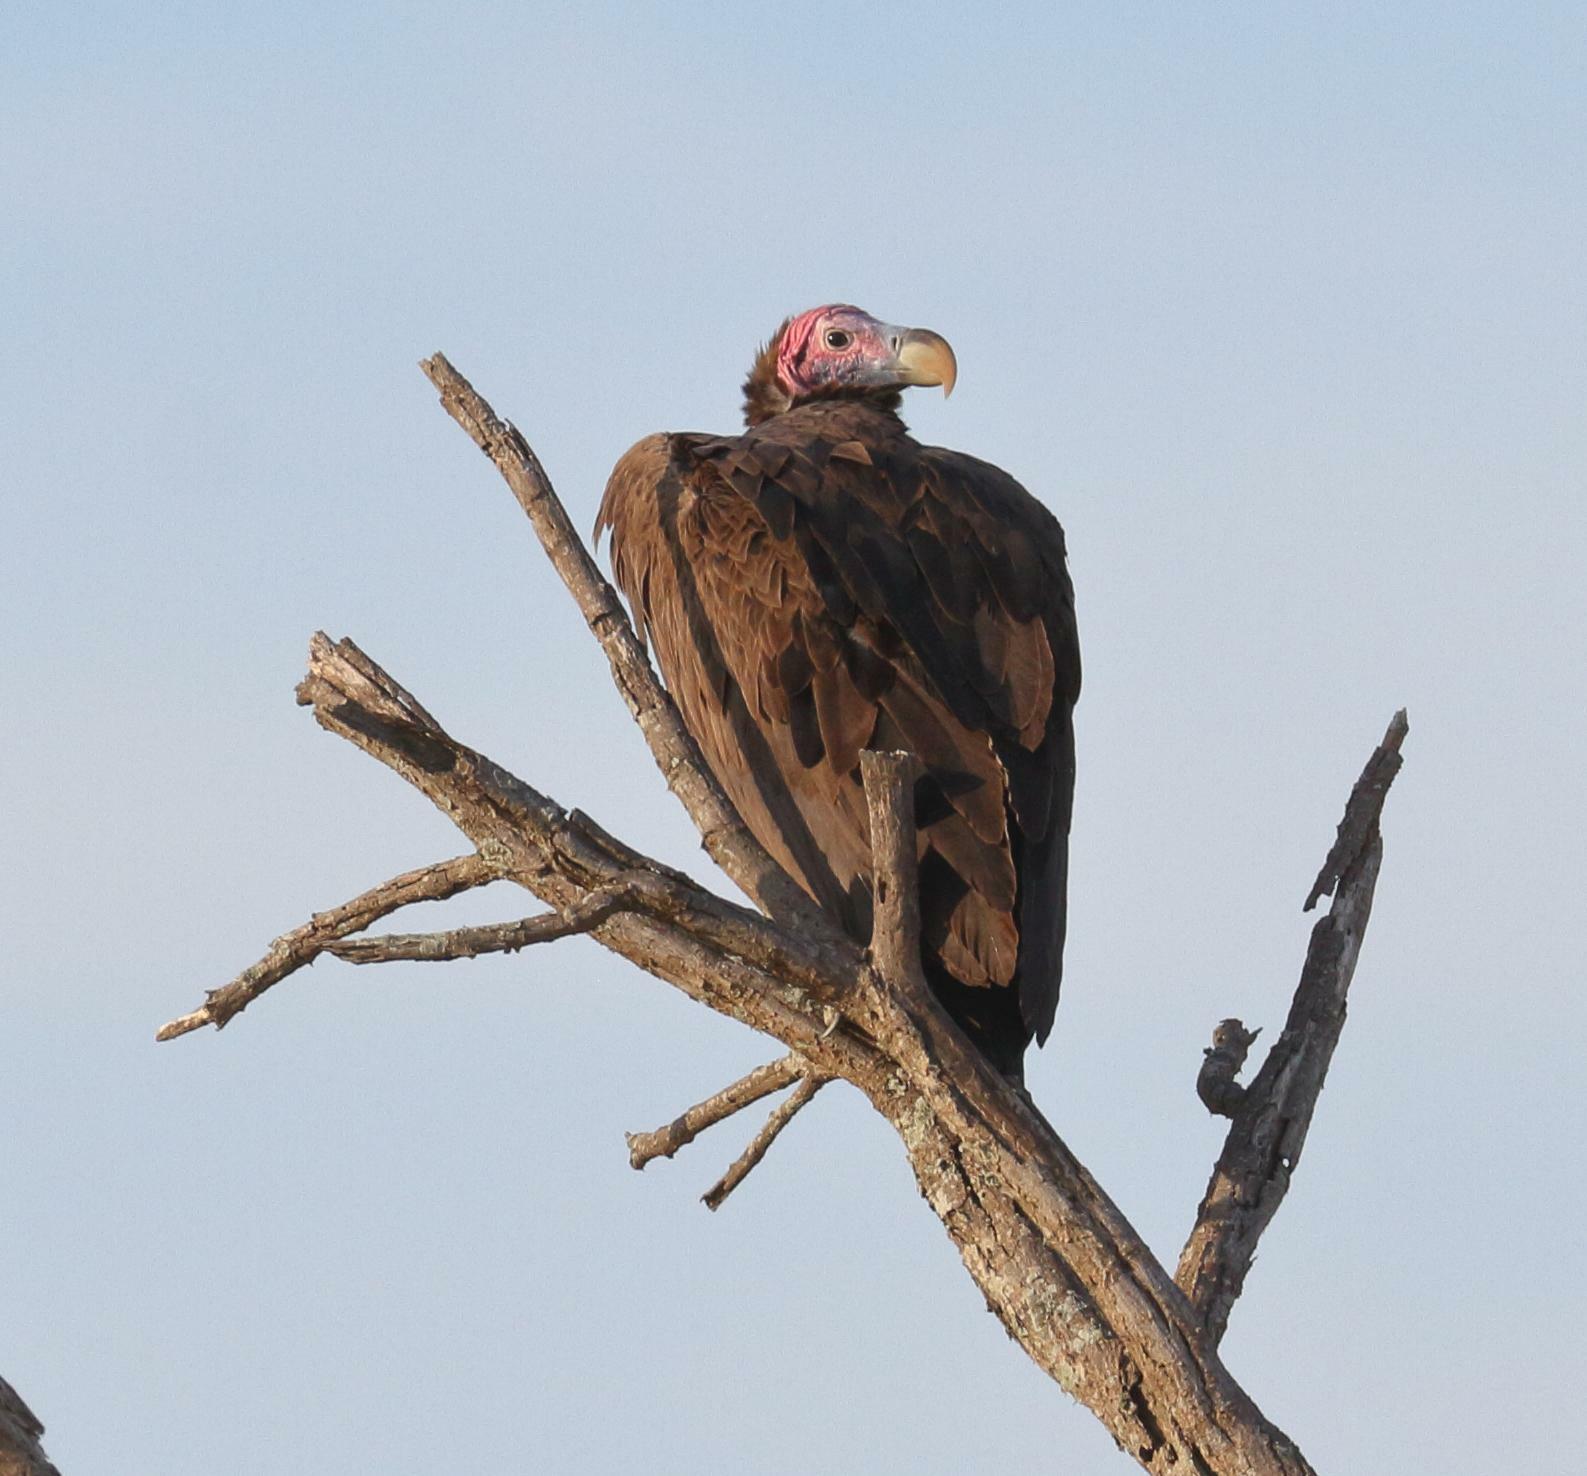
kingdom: Animalia
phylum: Chordata
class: Aves
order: Accipitriformes
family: Accipitridae
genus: Torgos
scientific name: Torgos tracheliotos
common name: Lappet-faced vulture
